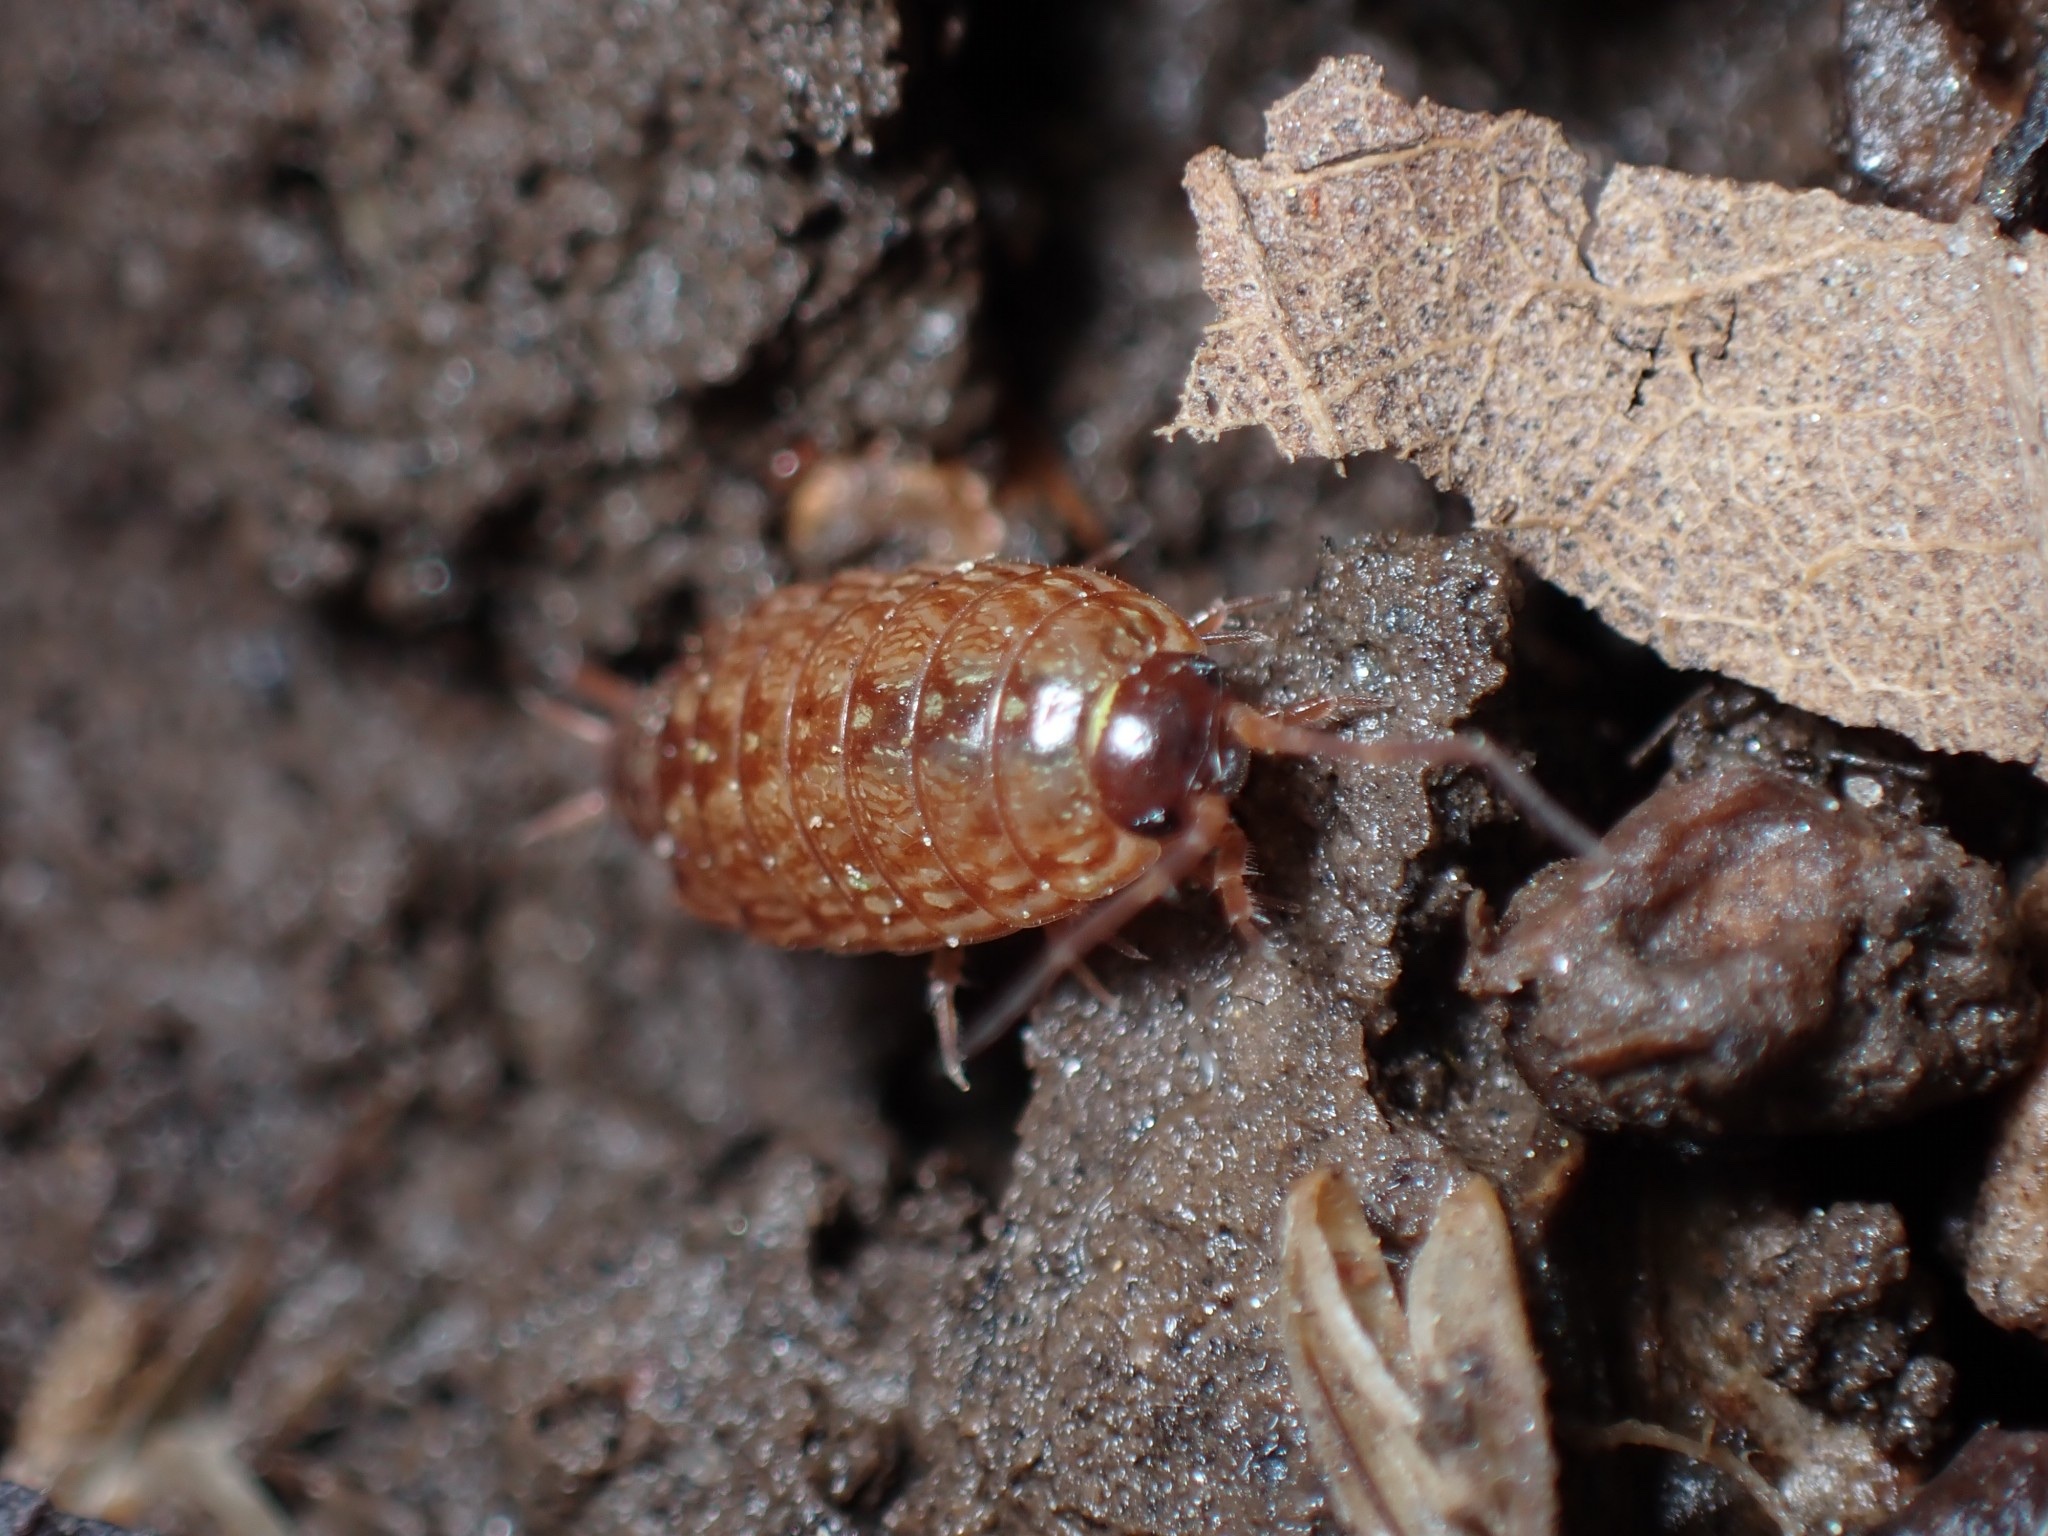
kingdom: Animalia
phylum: Arthropoda
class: Malacostraca
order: Isopoda
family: Philosciidae
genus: Philoscia
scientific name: Philoscia muscorum
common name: Common striped woodlouse
